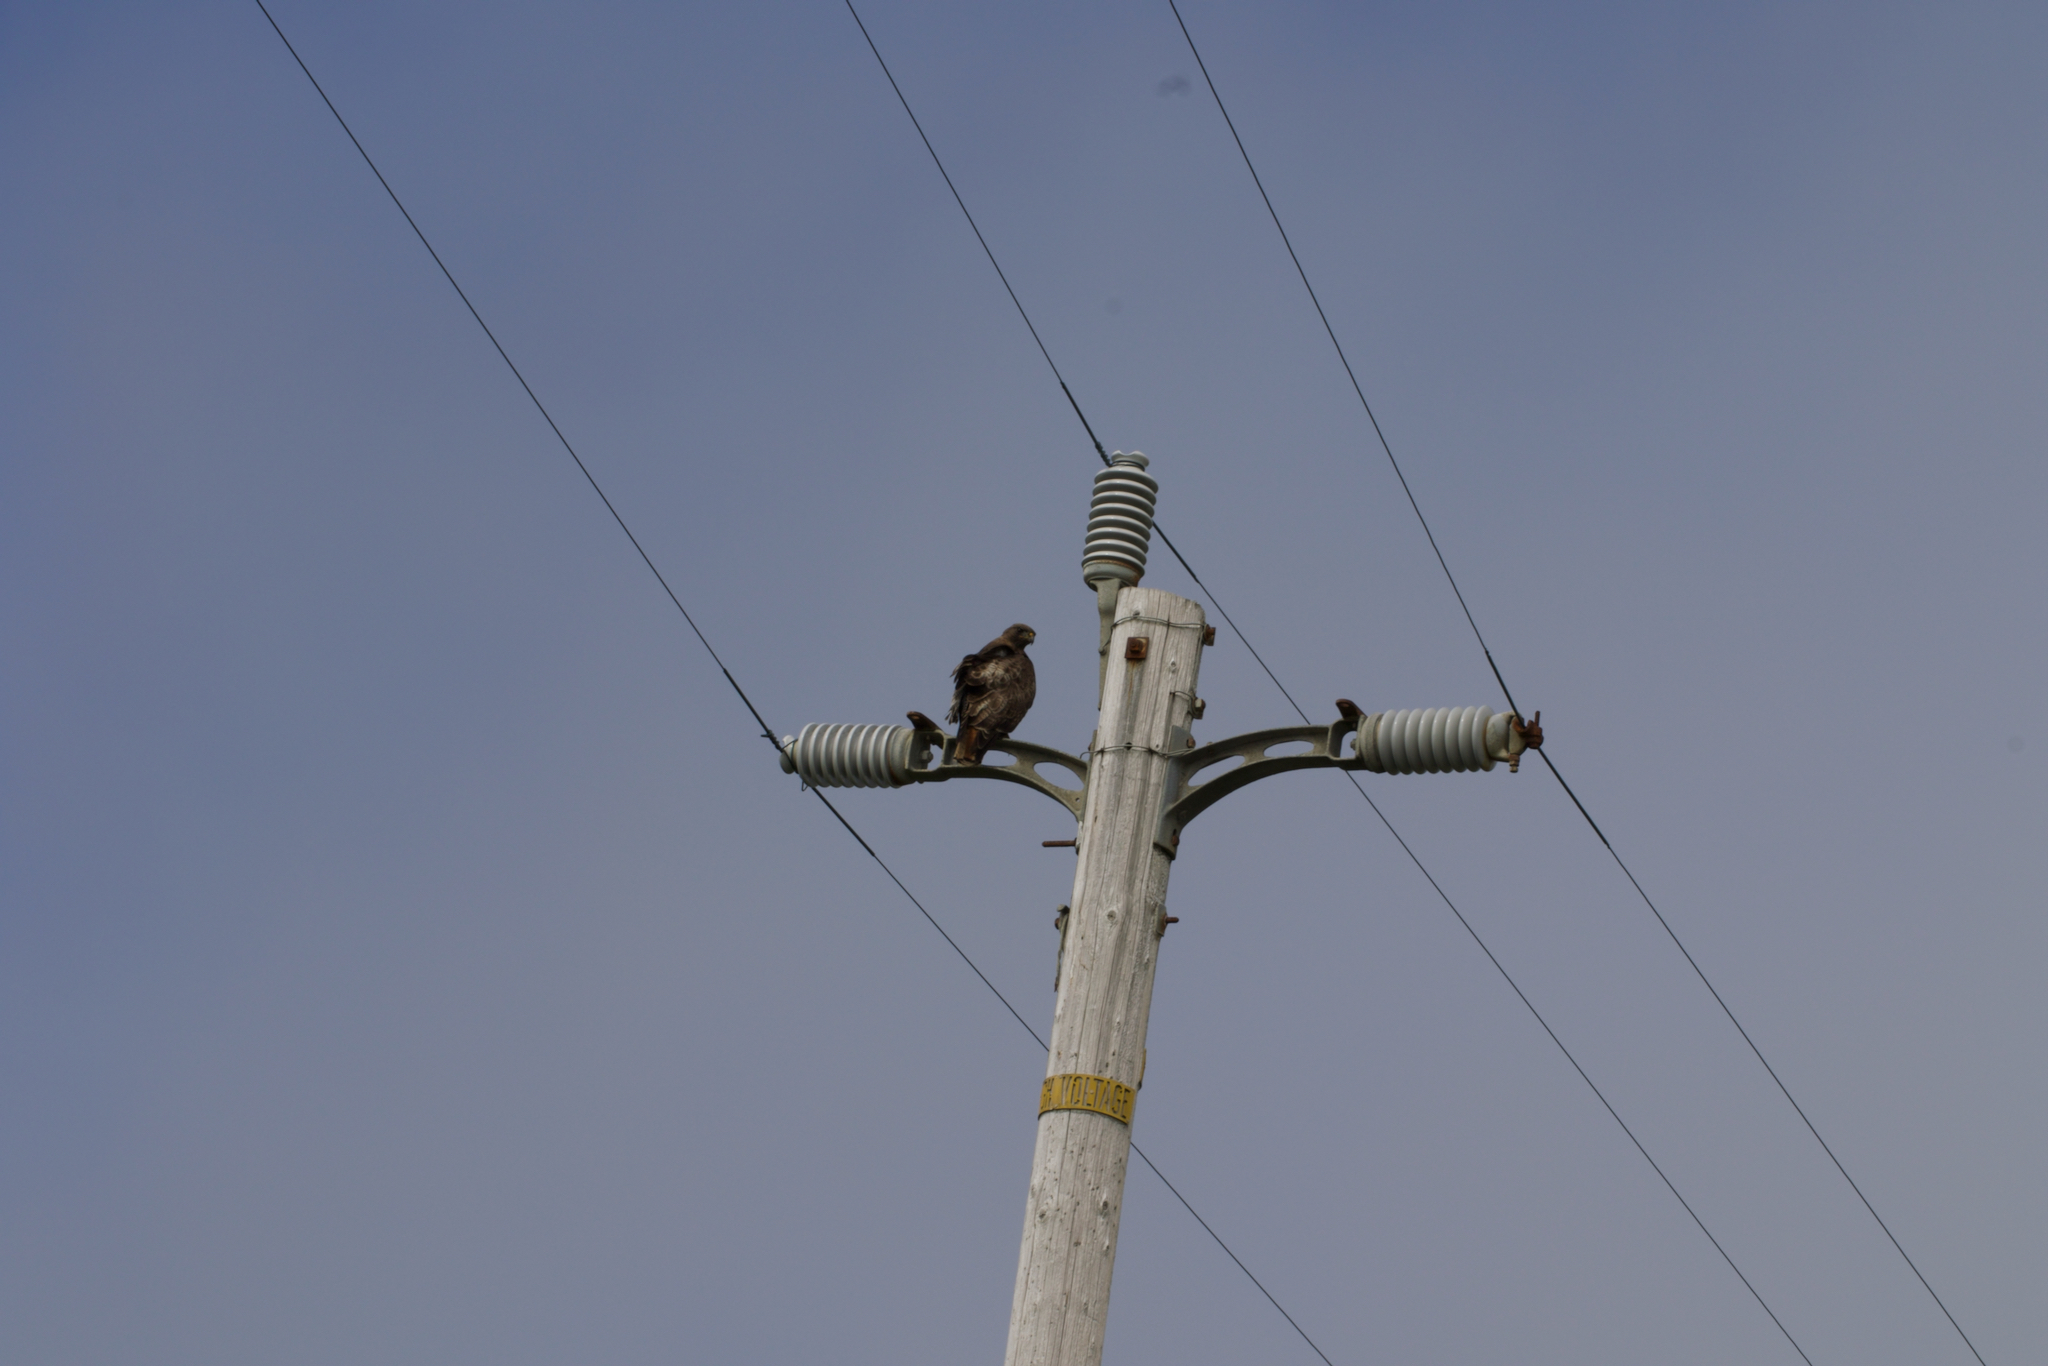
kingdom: Animalia
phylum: Chordata
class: Aves
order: Accipitriformes
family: Accipitridae
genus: Buteo
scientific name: Buteo jamaicensis
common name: Red-tailed hawk
